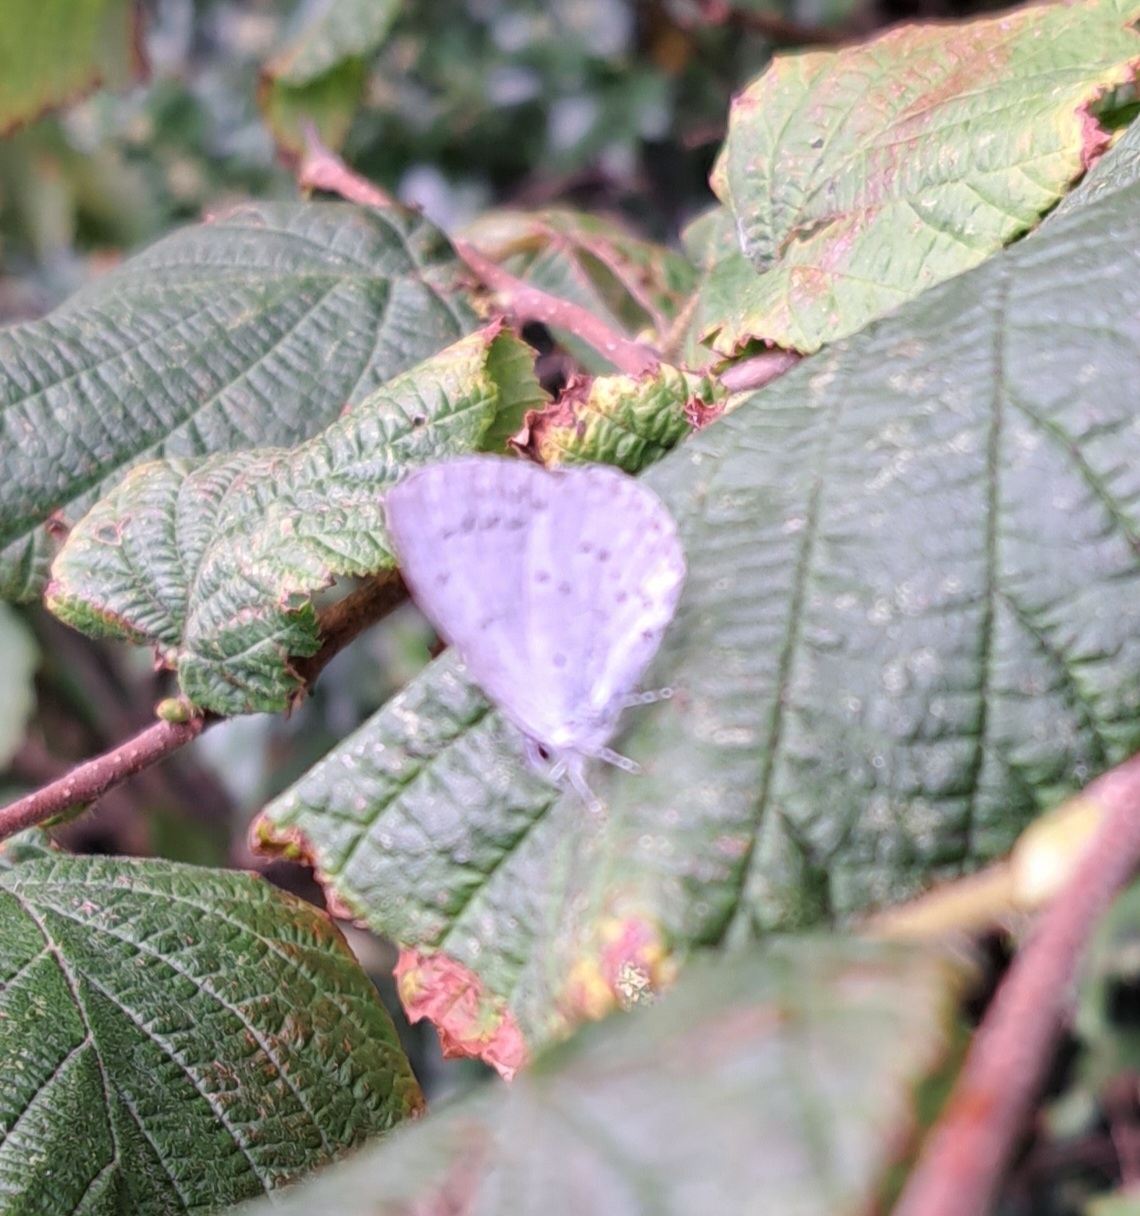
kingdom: Animalia
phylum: Arthropoda
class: Insecta
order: Lepidoptera
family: Lycaenidae
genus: Celastrina
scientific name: Celastrina argiolus
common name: Holly blue
